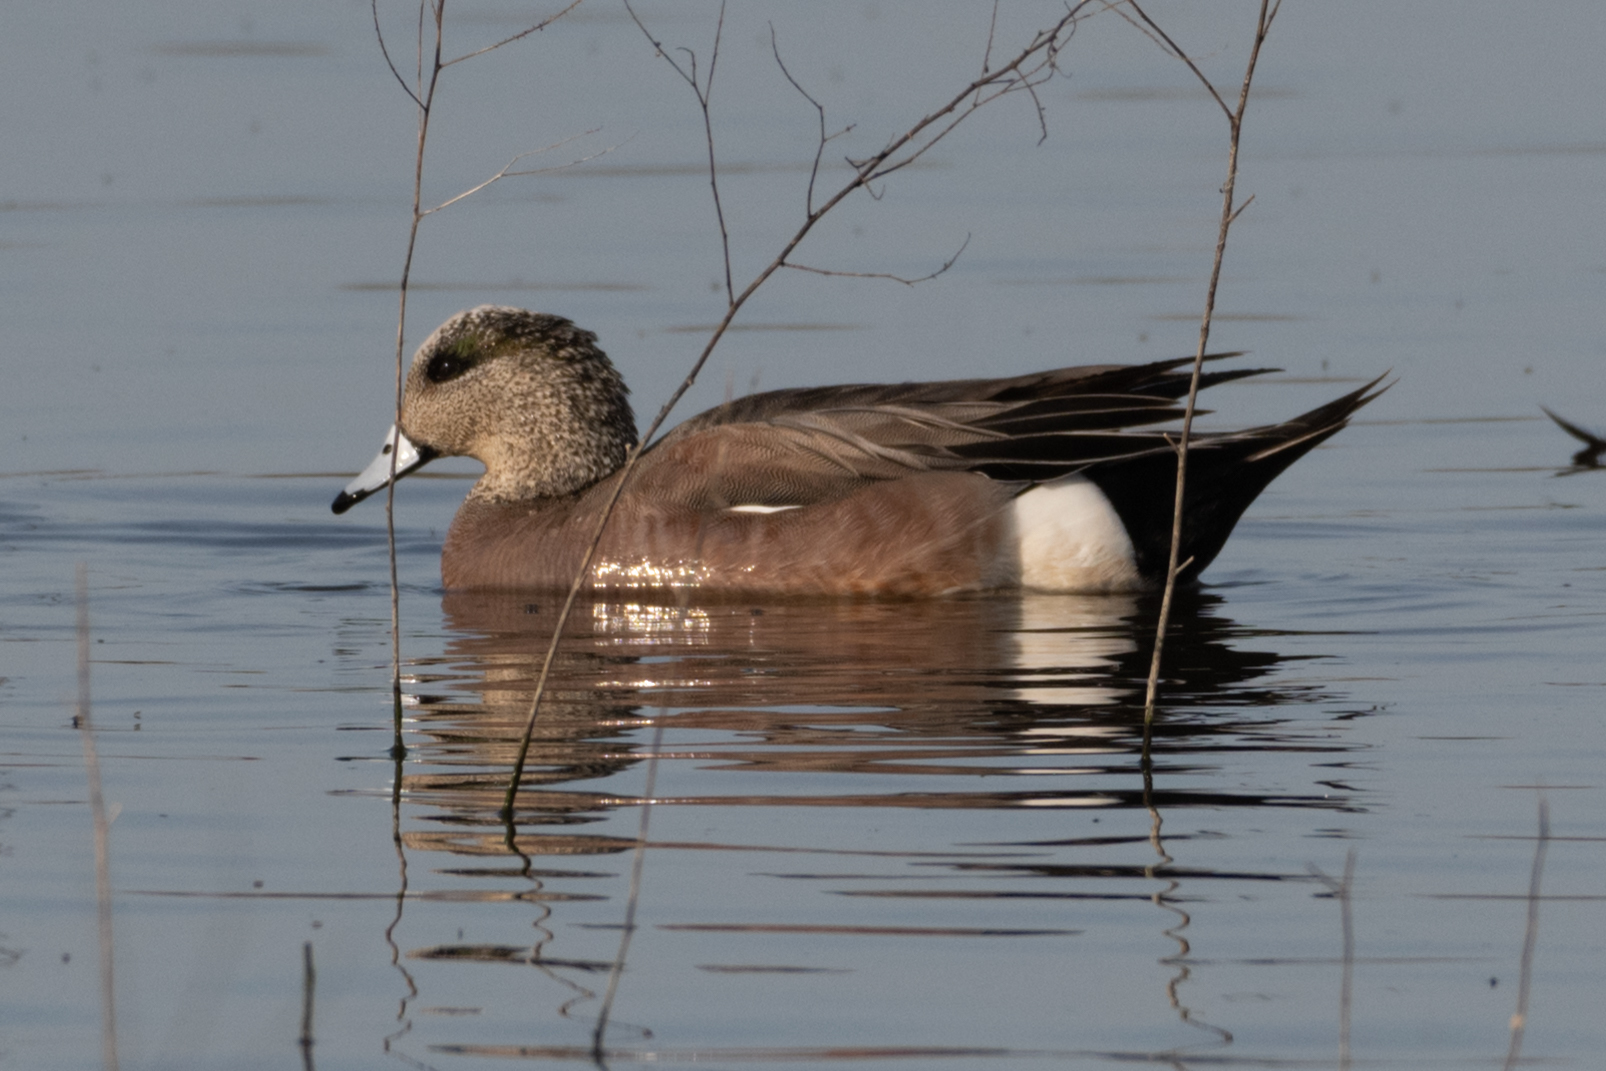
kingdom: Animalia
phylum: Chordata
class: Aves
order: Anseriformes
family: Anatidae
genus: Mareca
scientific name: Mareca americana
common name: American wigeon
